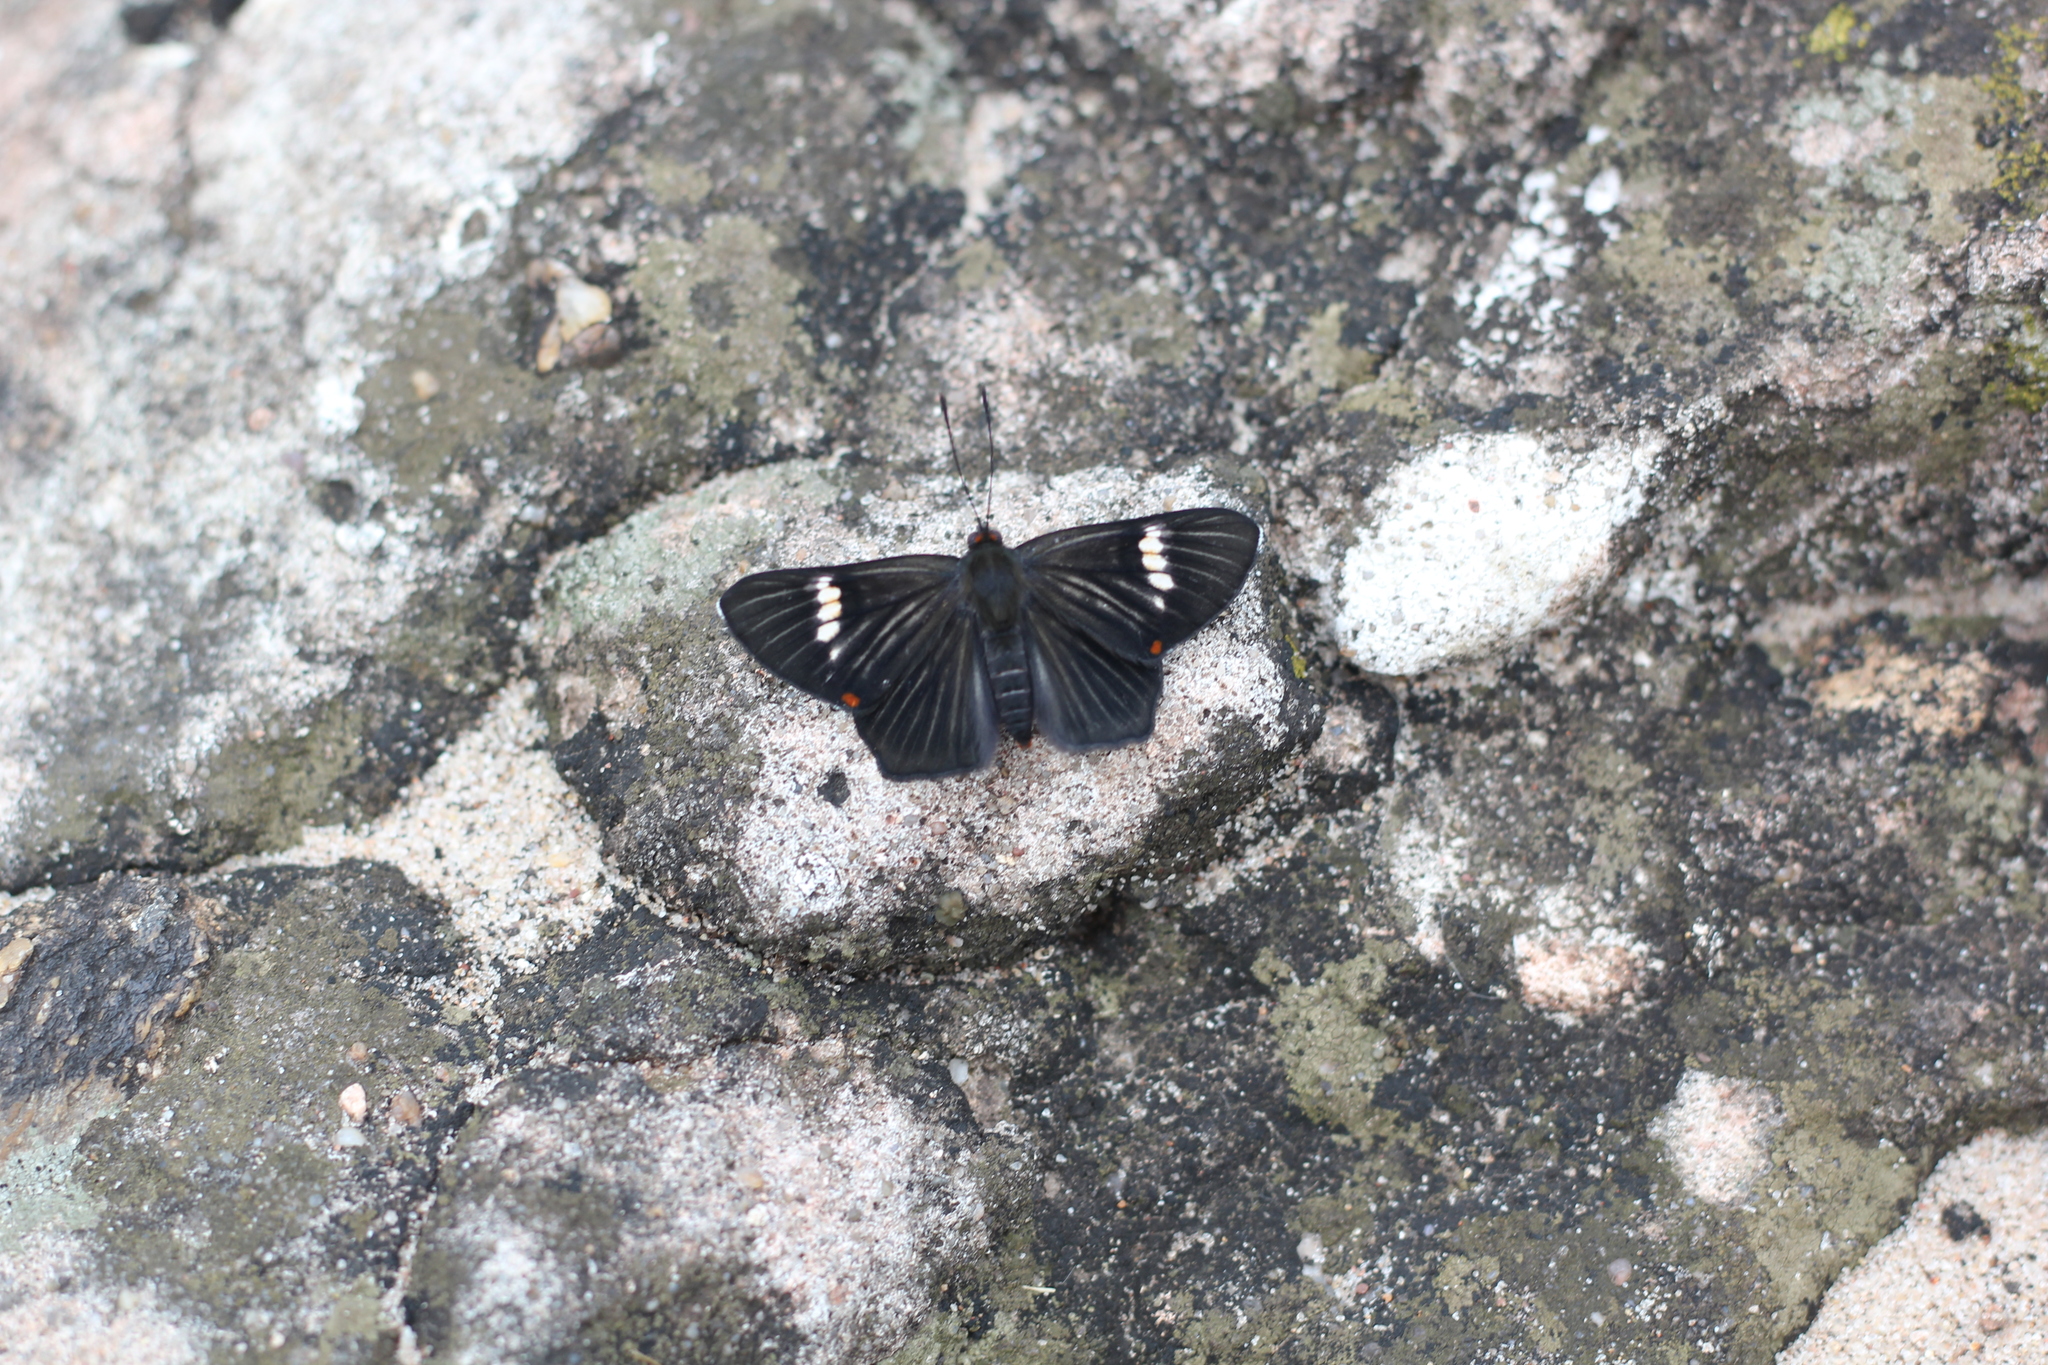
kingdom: Animalia
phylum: Arthropoda
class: Insecta
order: Lepidoptera
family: Riodinidae
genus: Riodina
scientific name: Riodina lycisca
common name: Lycisca metalmark
